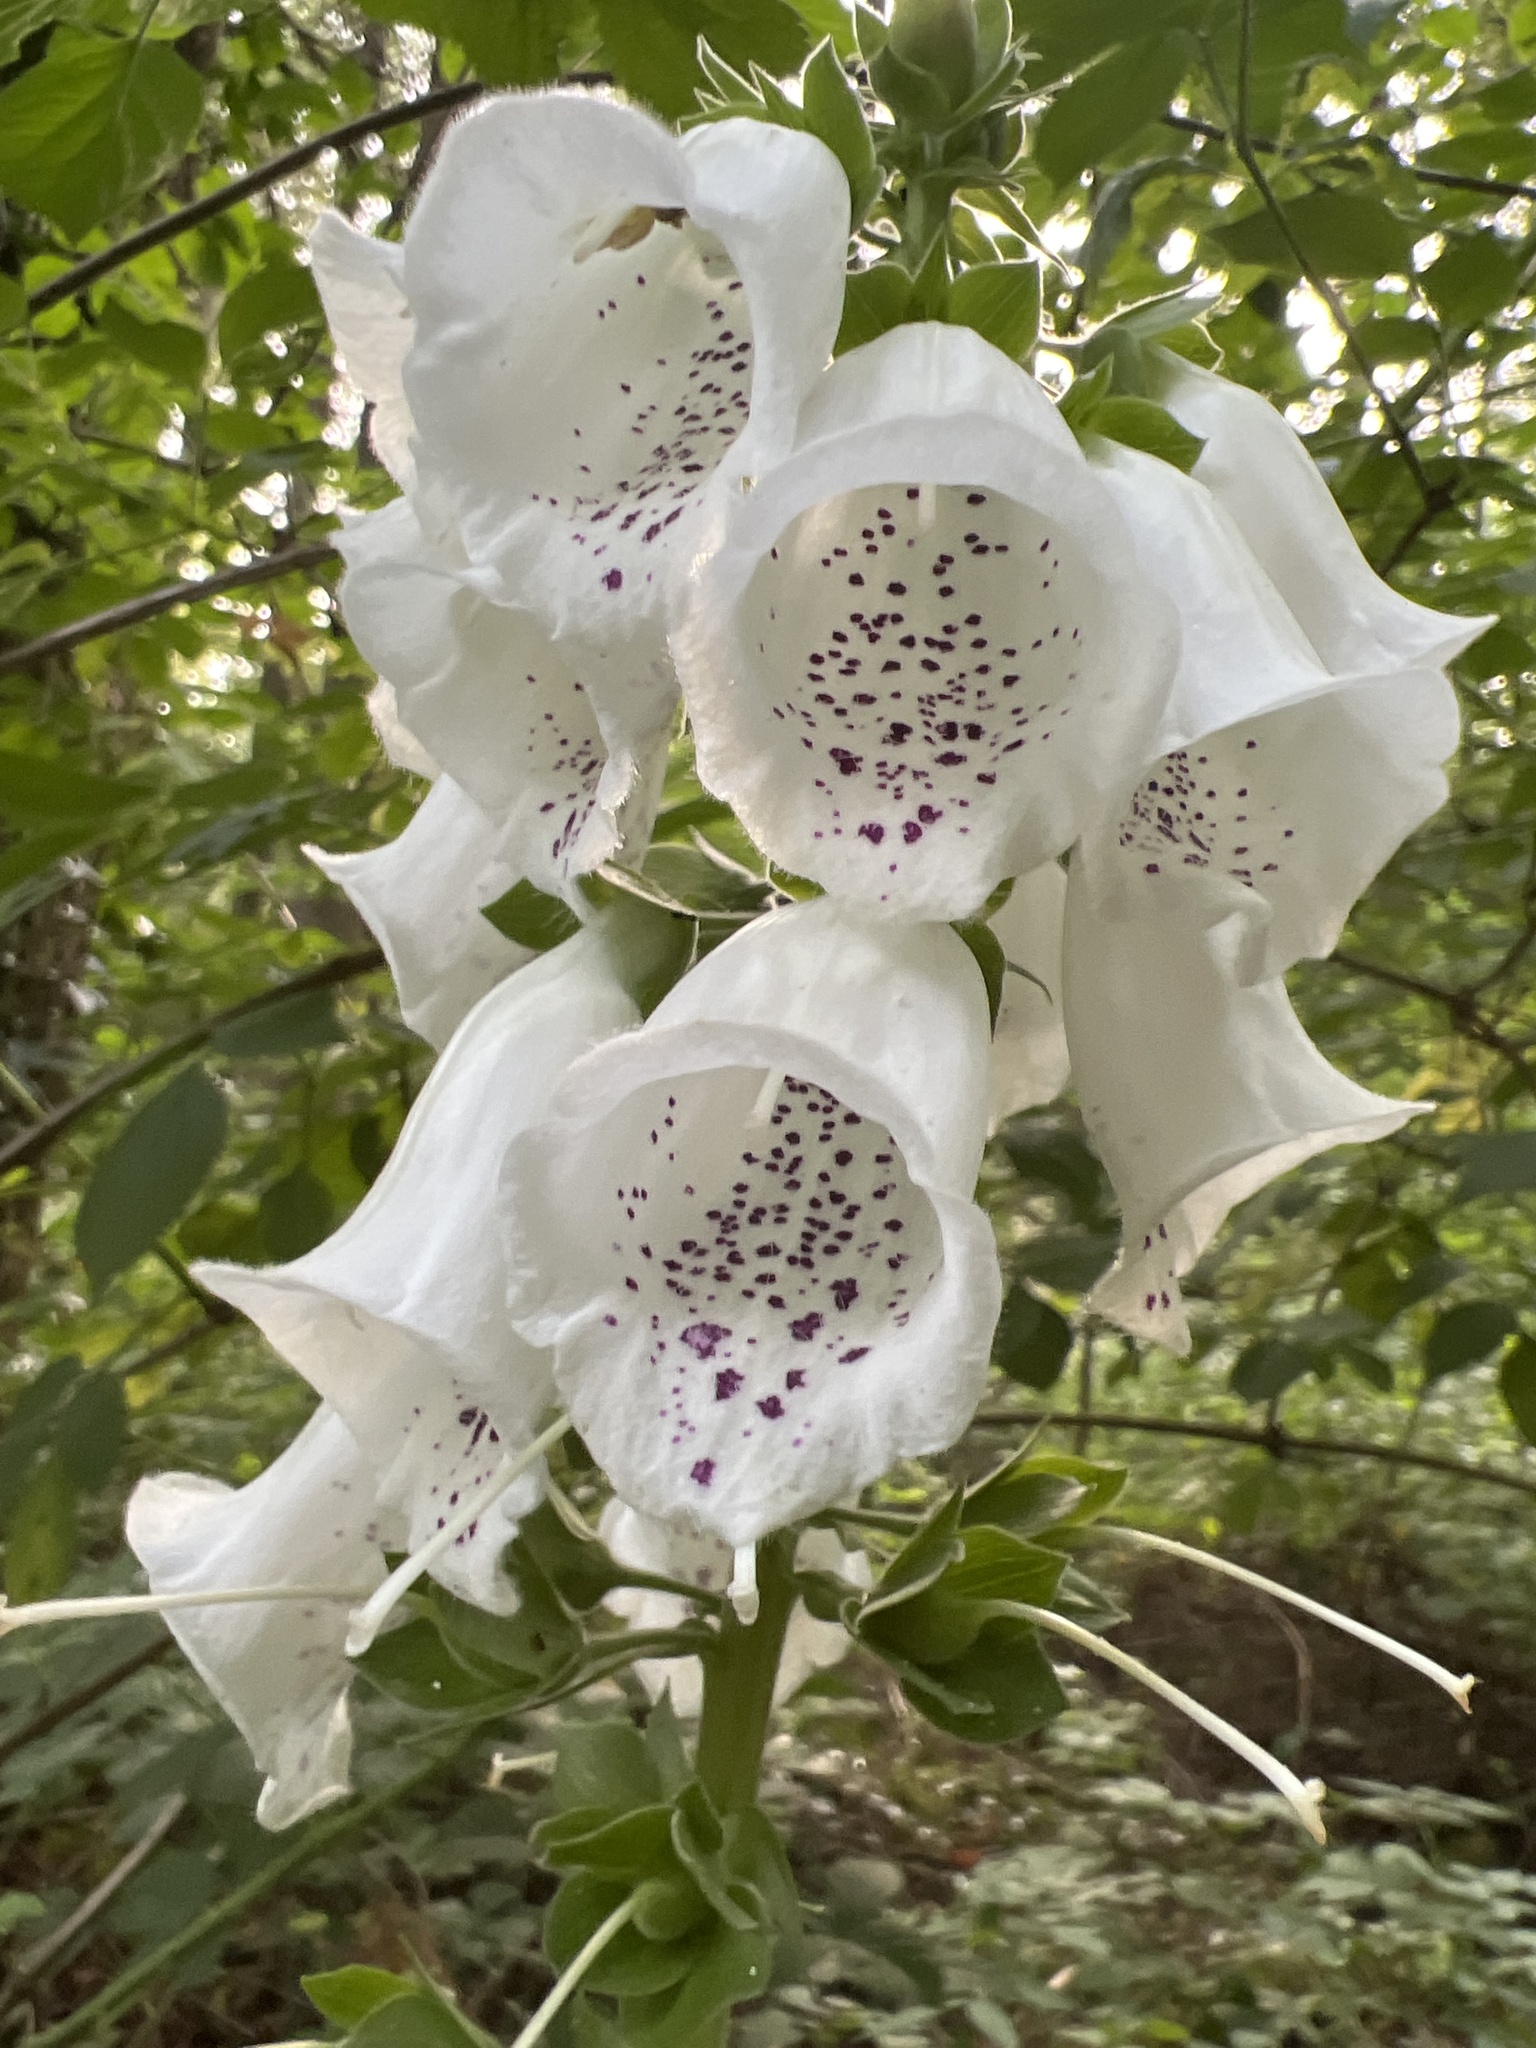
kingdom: Plantae
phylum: Tracheophyta
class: Magnoliopsida
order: Lamiales
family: Plantaginaceae
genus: Digitalis
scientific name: Digitalis purpurea
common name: Foxglove
